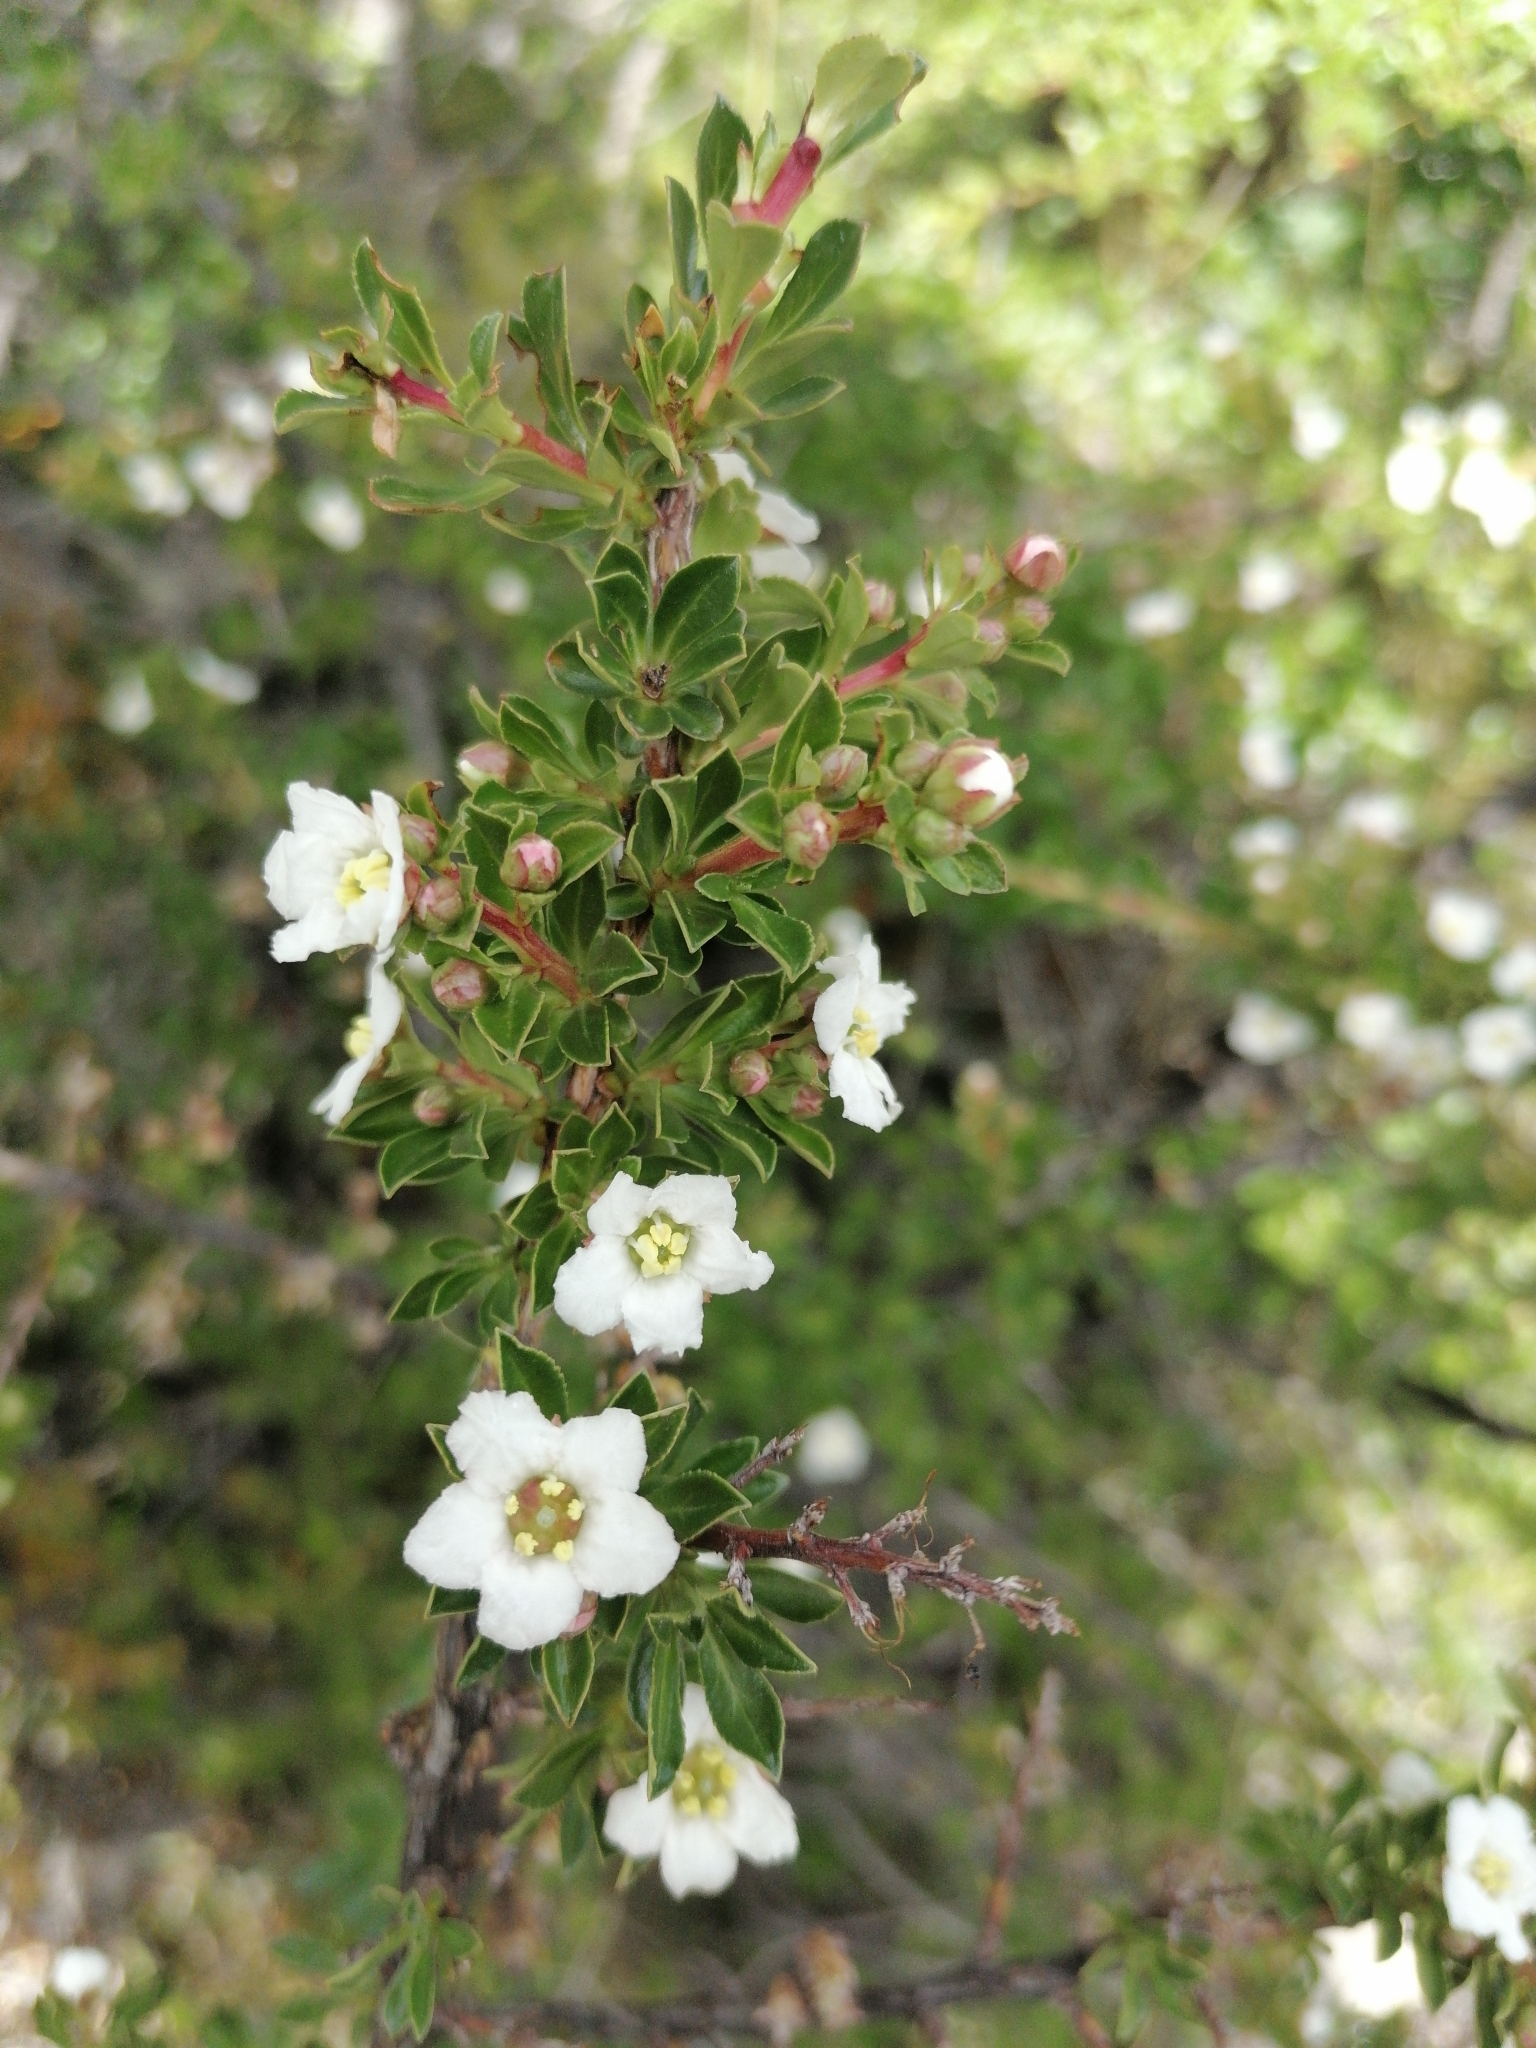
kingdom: Plantae
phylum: Tracheophyta
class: Magnoliopsida
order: Escalloniales
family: Escalloniaceae
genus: Escallonia
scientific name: Escallonia virgata
